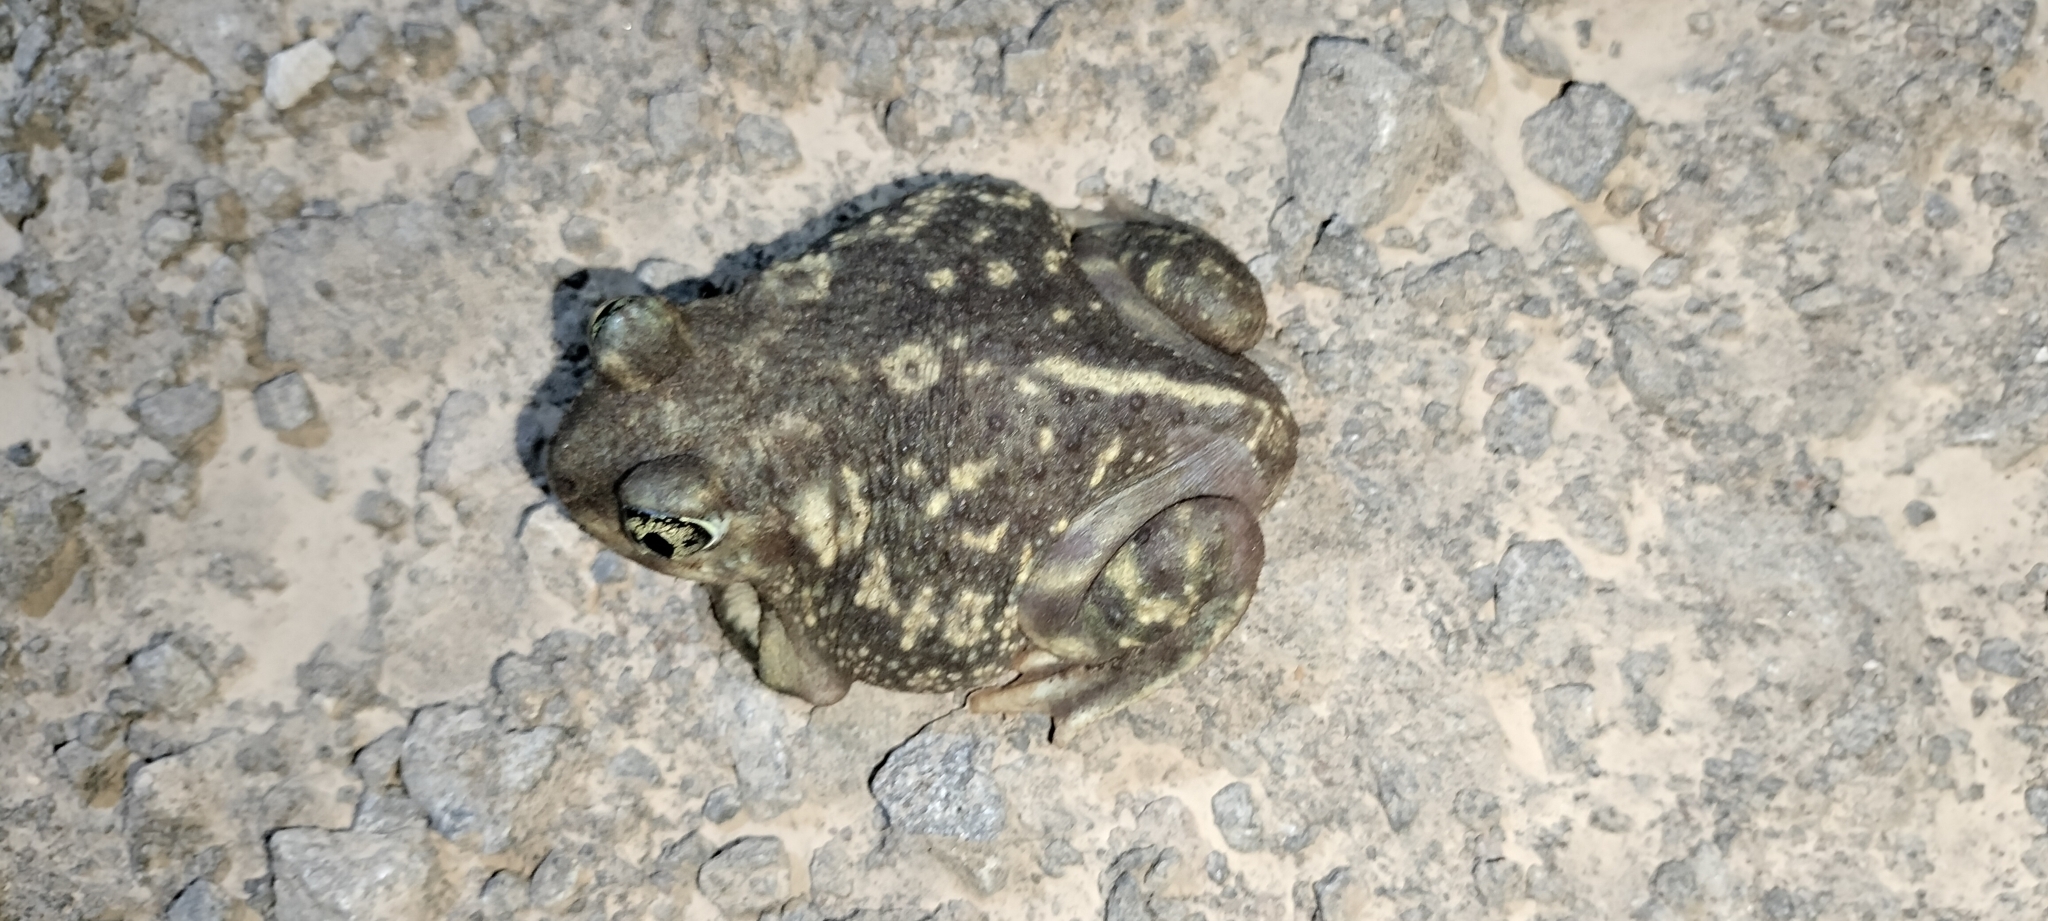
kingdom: Animalia
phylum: Chordata
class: Amphibia
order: Anura
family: Scaphiopodidae
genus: Scaphiopus
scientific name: Scaphiopus couchii
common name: Couch's spadefoot toad
